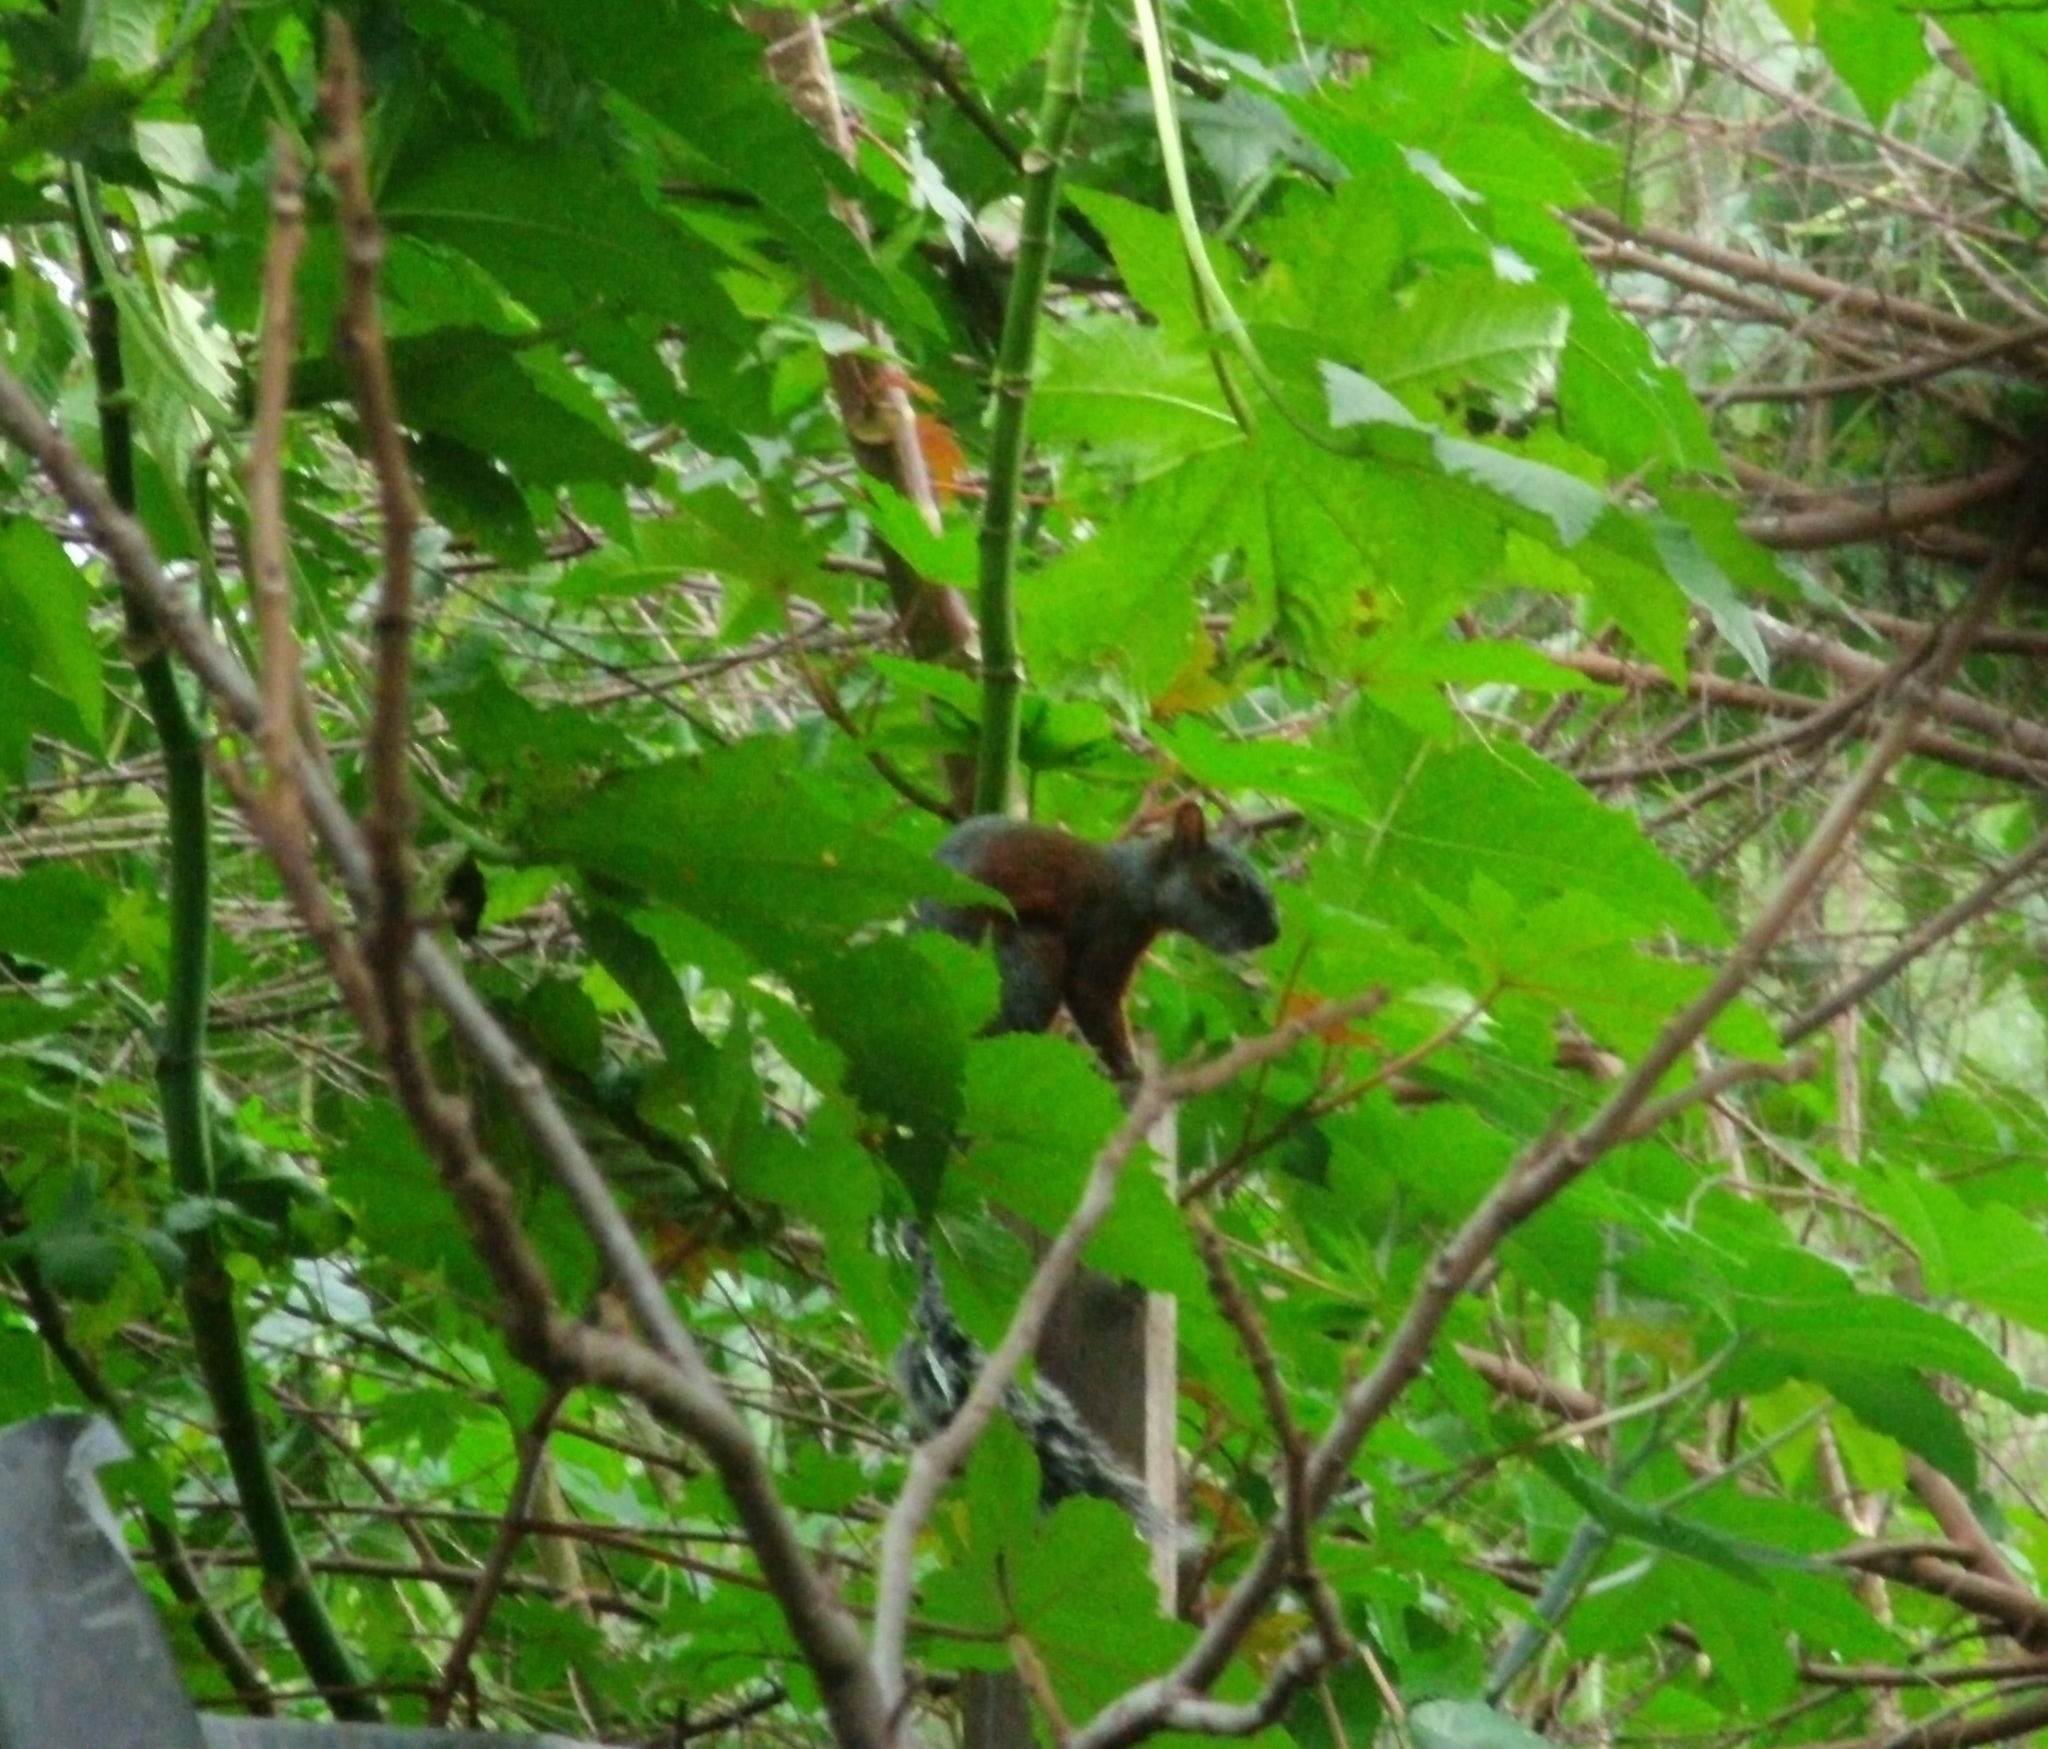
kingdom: Animalia
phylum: Chordata
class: Mammalia
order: Rodentia
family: Sciuridae
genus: Sciurus
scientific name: Sciurus aureogaster
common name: Red-bellied squirrel
